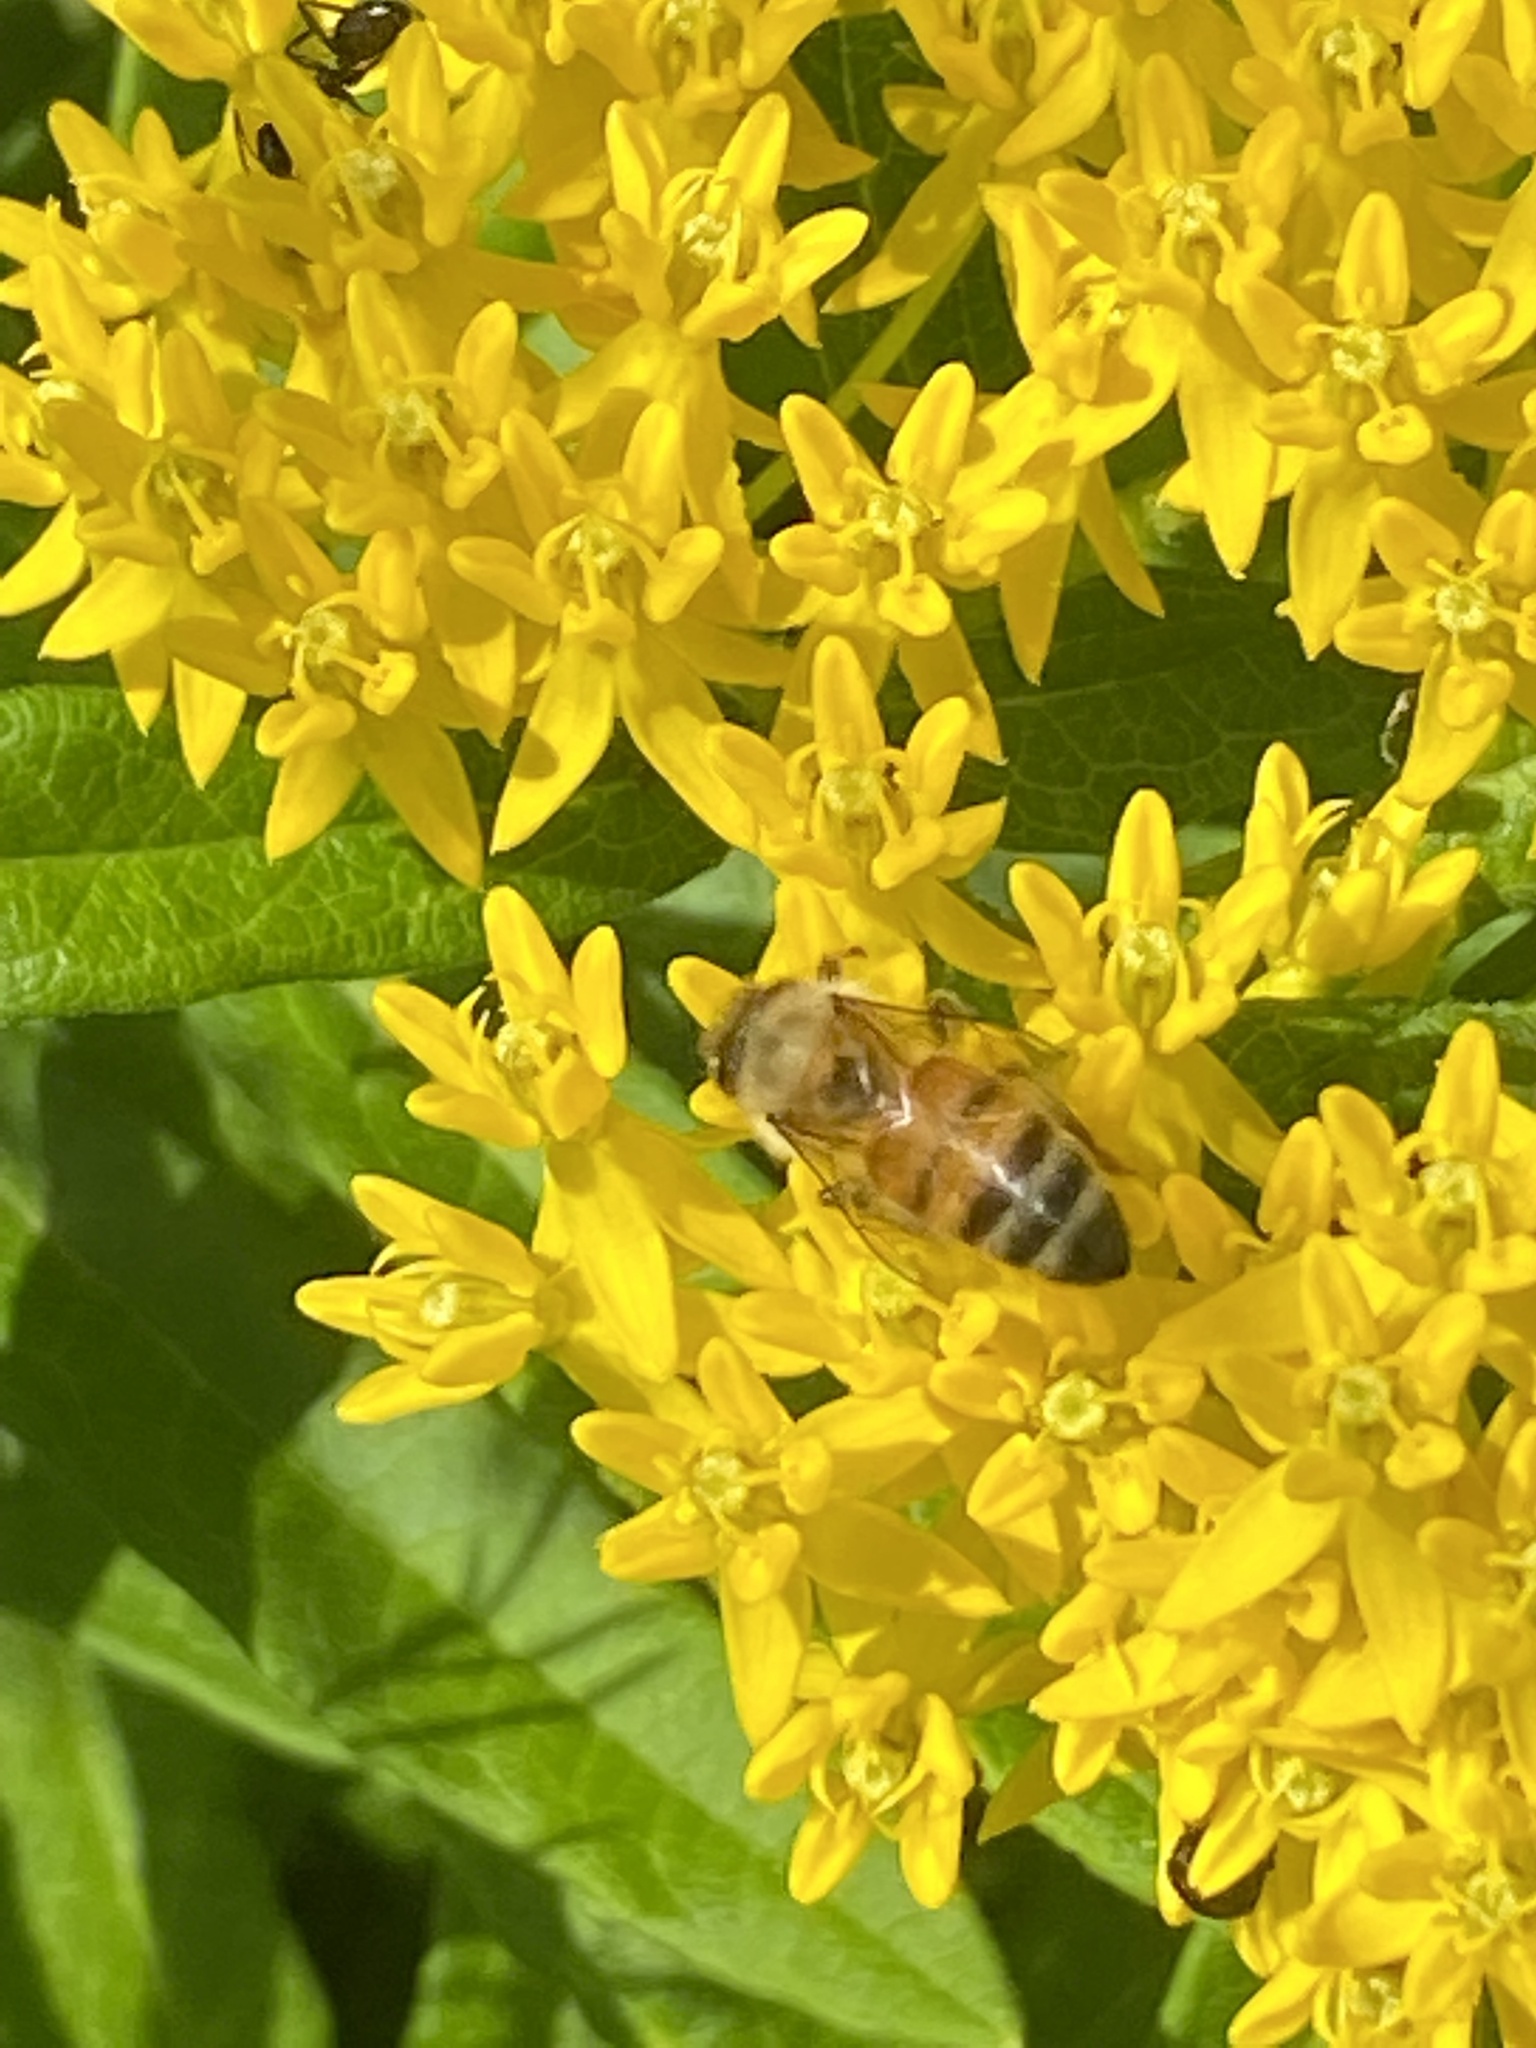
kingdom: Animalia
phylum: Arthropoda
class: Insecta
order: Hymenoptera
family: Apidae
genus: Apis
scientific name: Apis mellifera
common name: Honey bee
